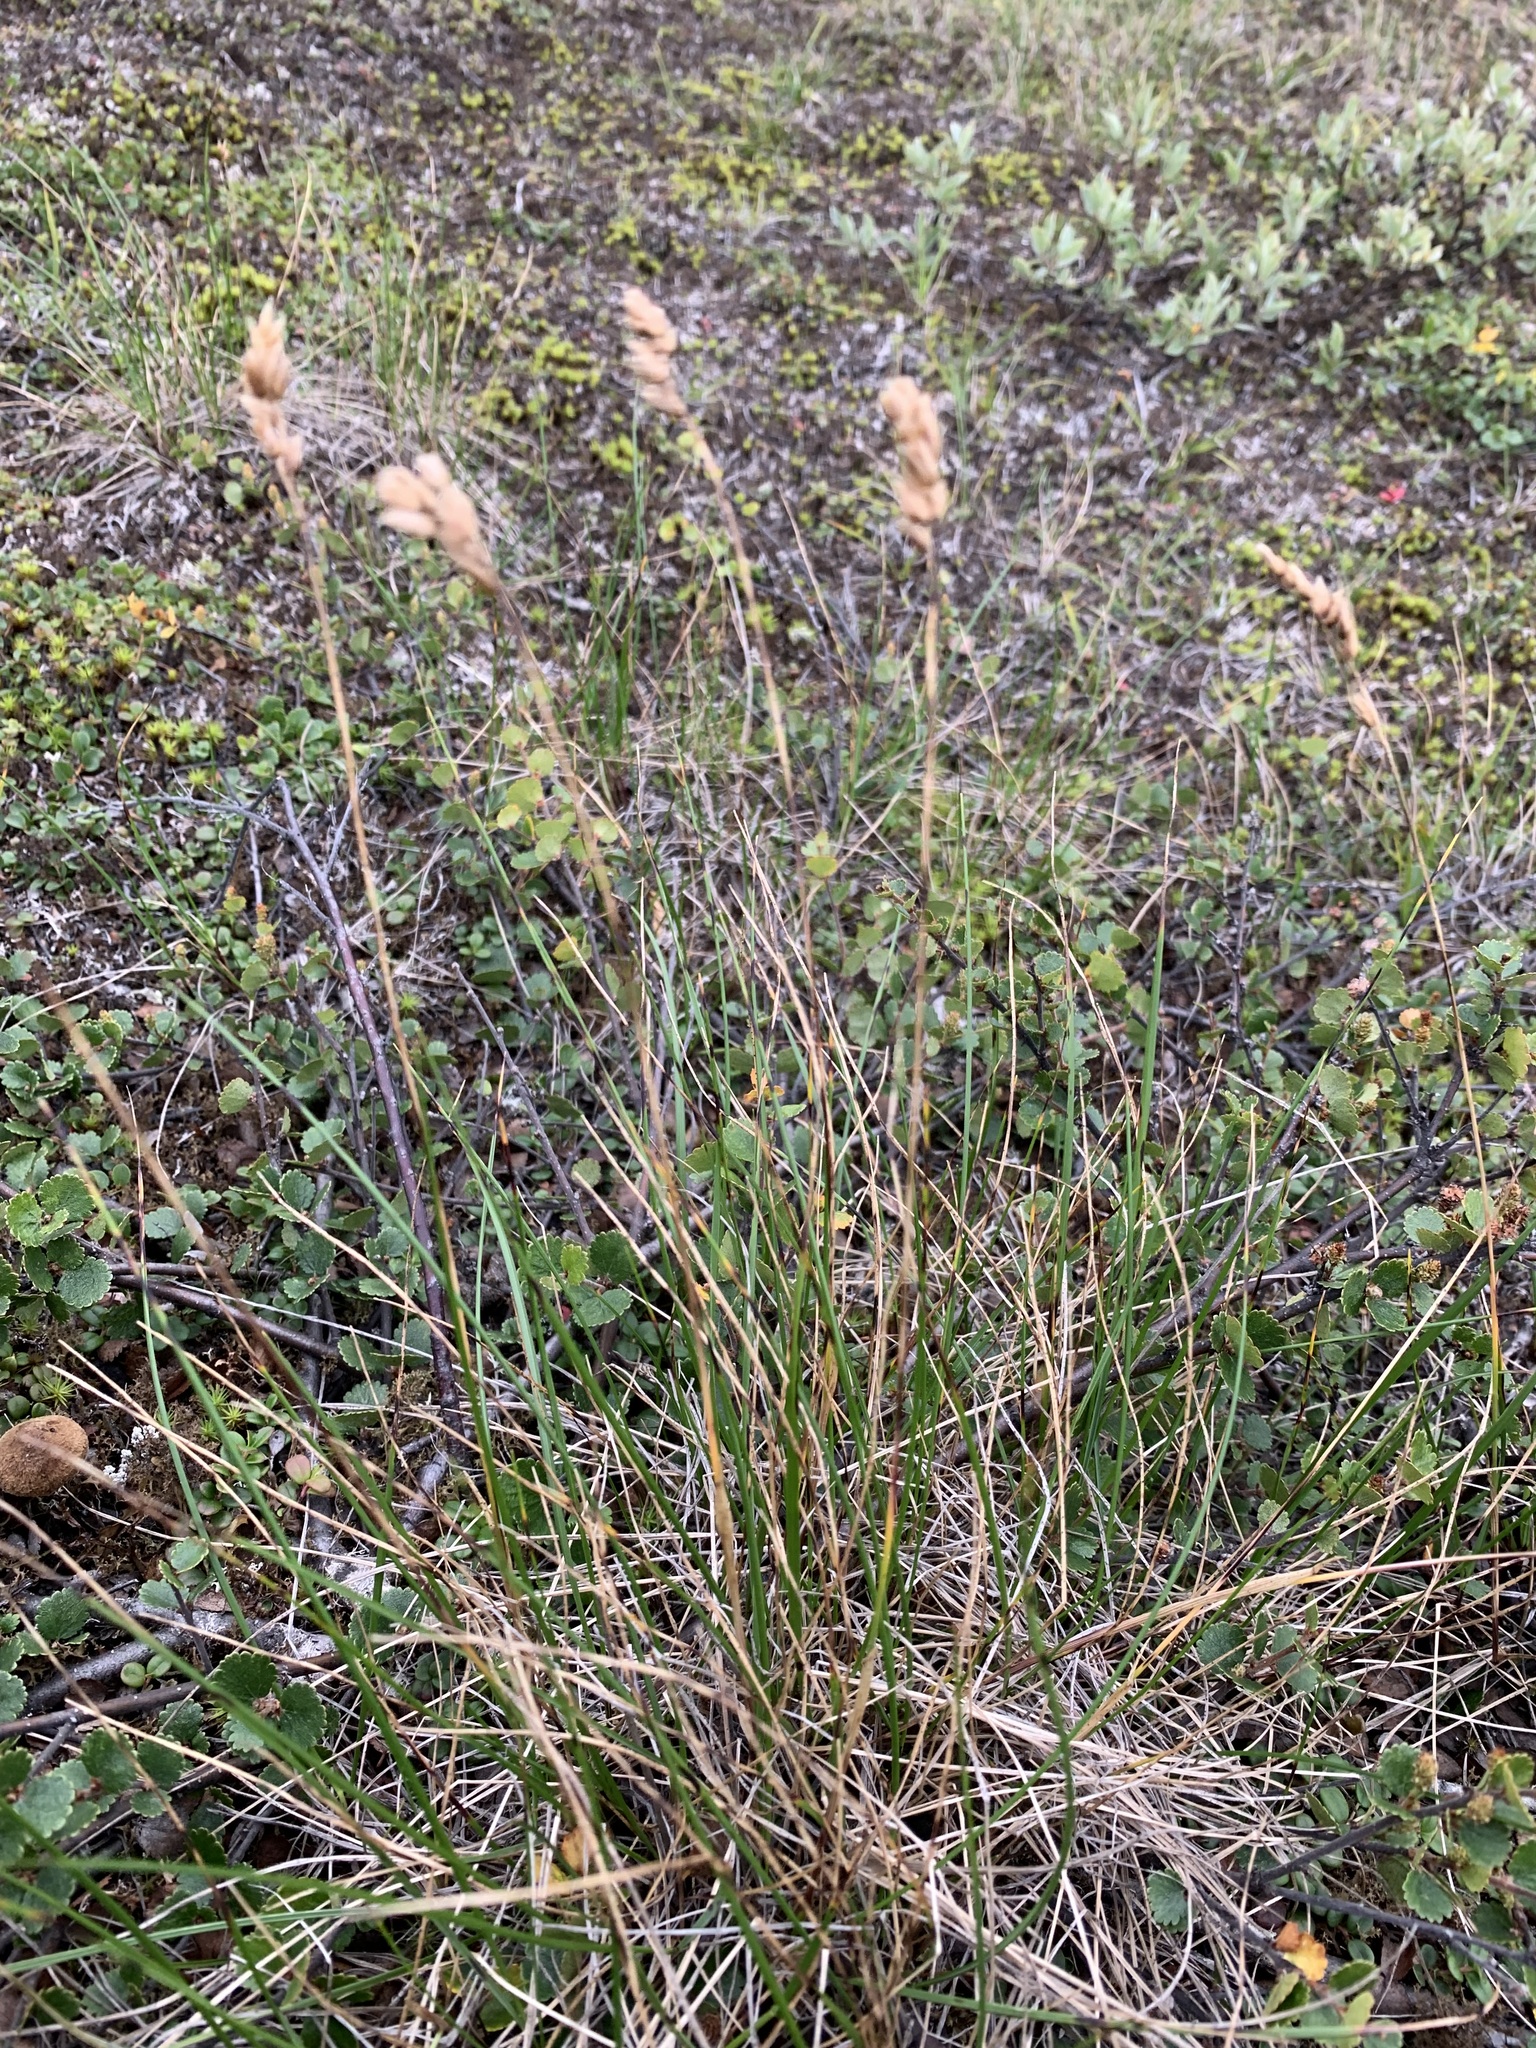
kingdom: Plantae
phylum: Tracheophyta
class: Liliopsida
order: Poales
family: Poaceae
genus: Anthoxanthum
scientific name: Anthoxanthum monticola
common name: Alpine sweetgrass
